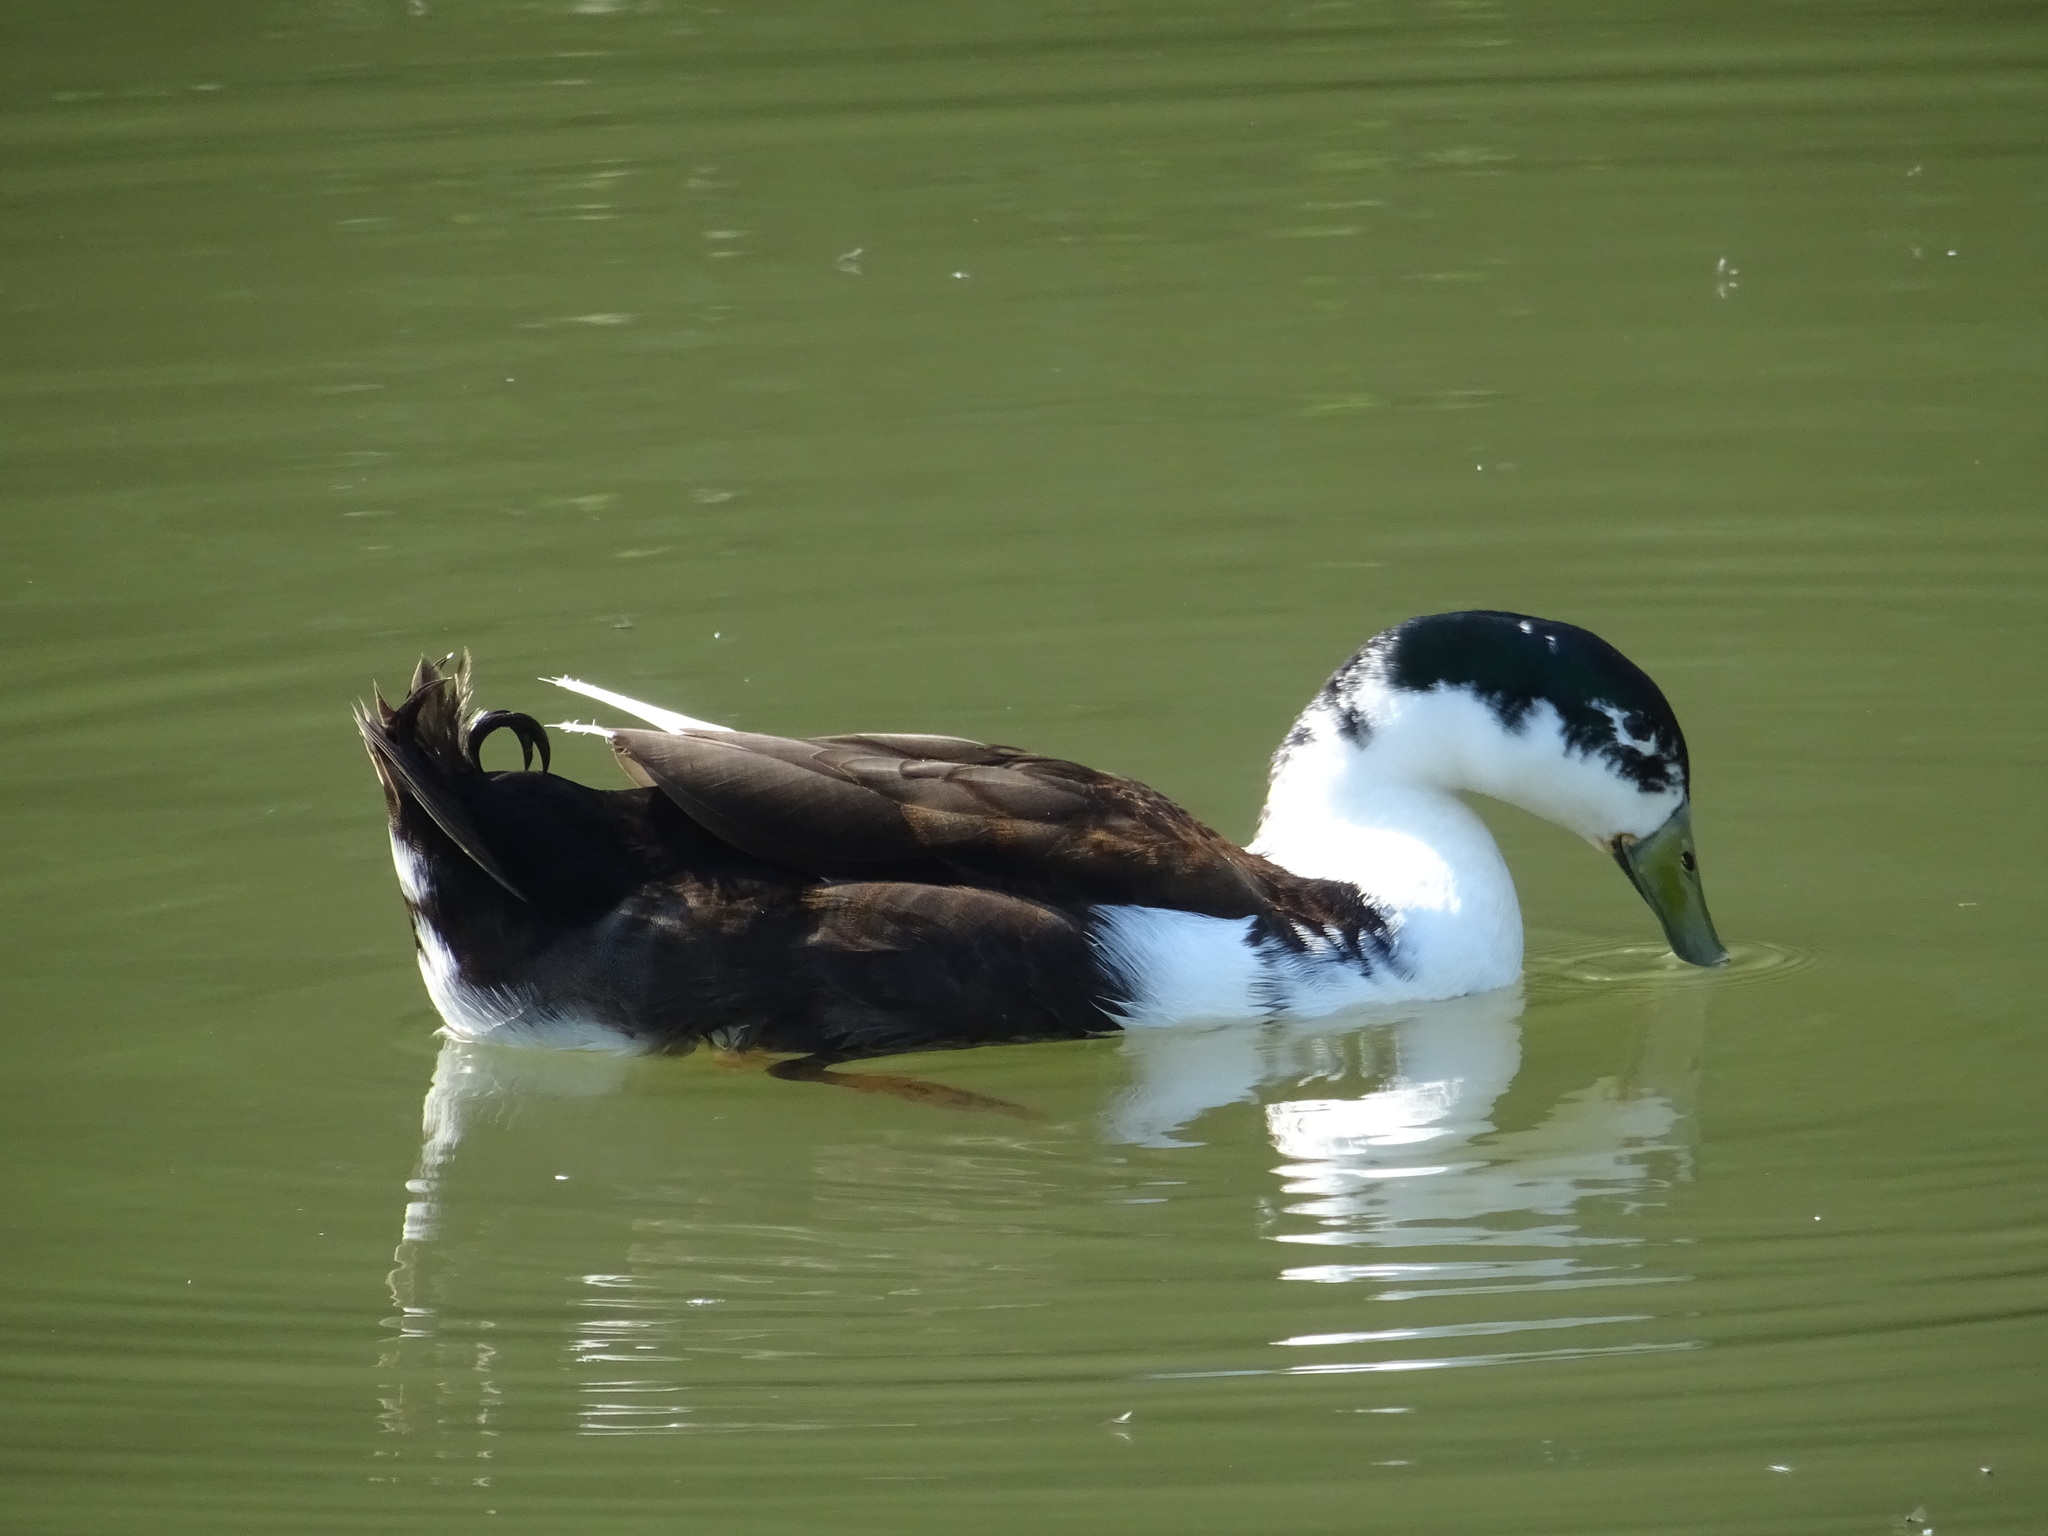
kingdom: Animalia
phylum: Chordata
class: Aves
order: Anseriformes
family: Anatidae
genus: Anas
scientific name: Anas platyrhynchos
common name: Mallard
